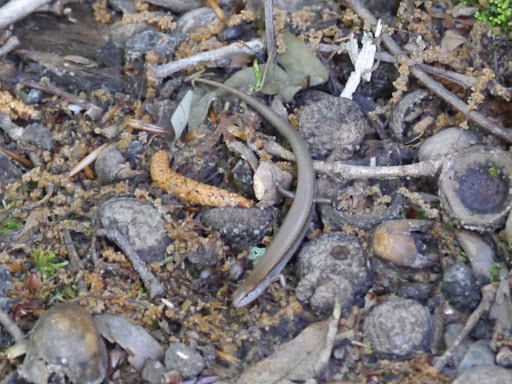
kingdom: Animalia
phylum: Chordata
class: Squamata
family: Scincidae
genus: Scincella
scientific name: Scincella lateralis
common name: Ground skink
